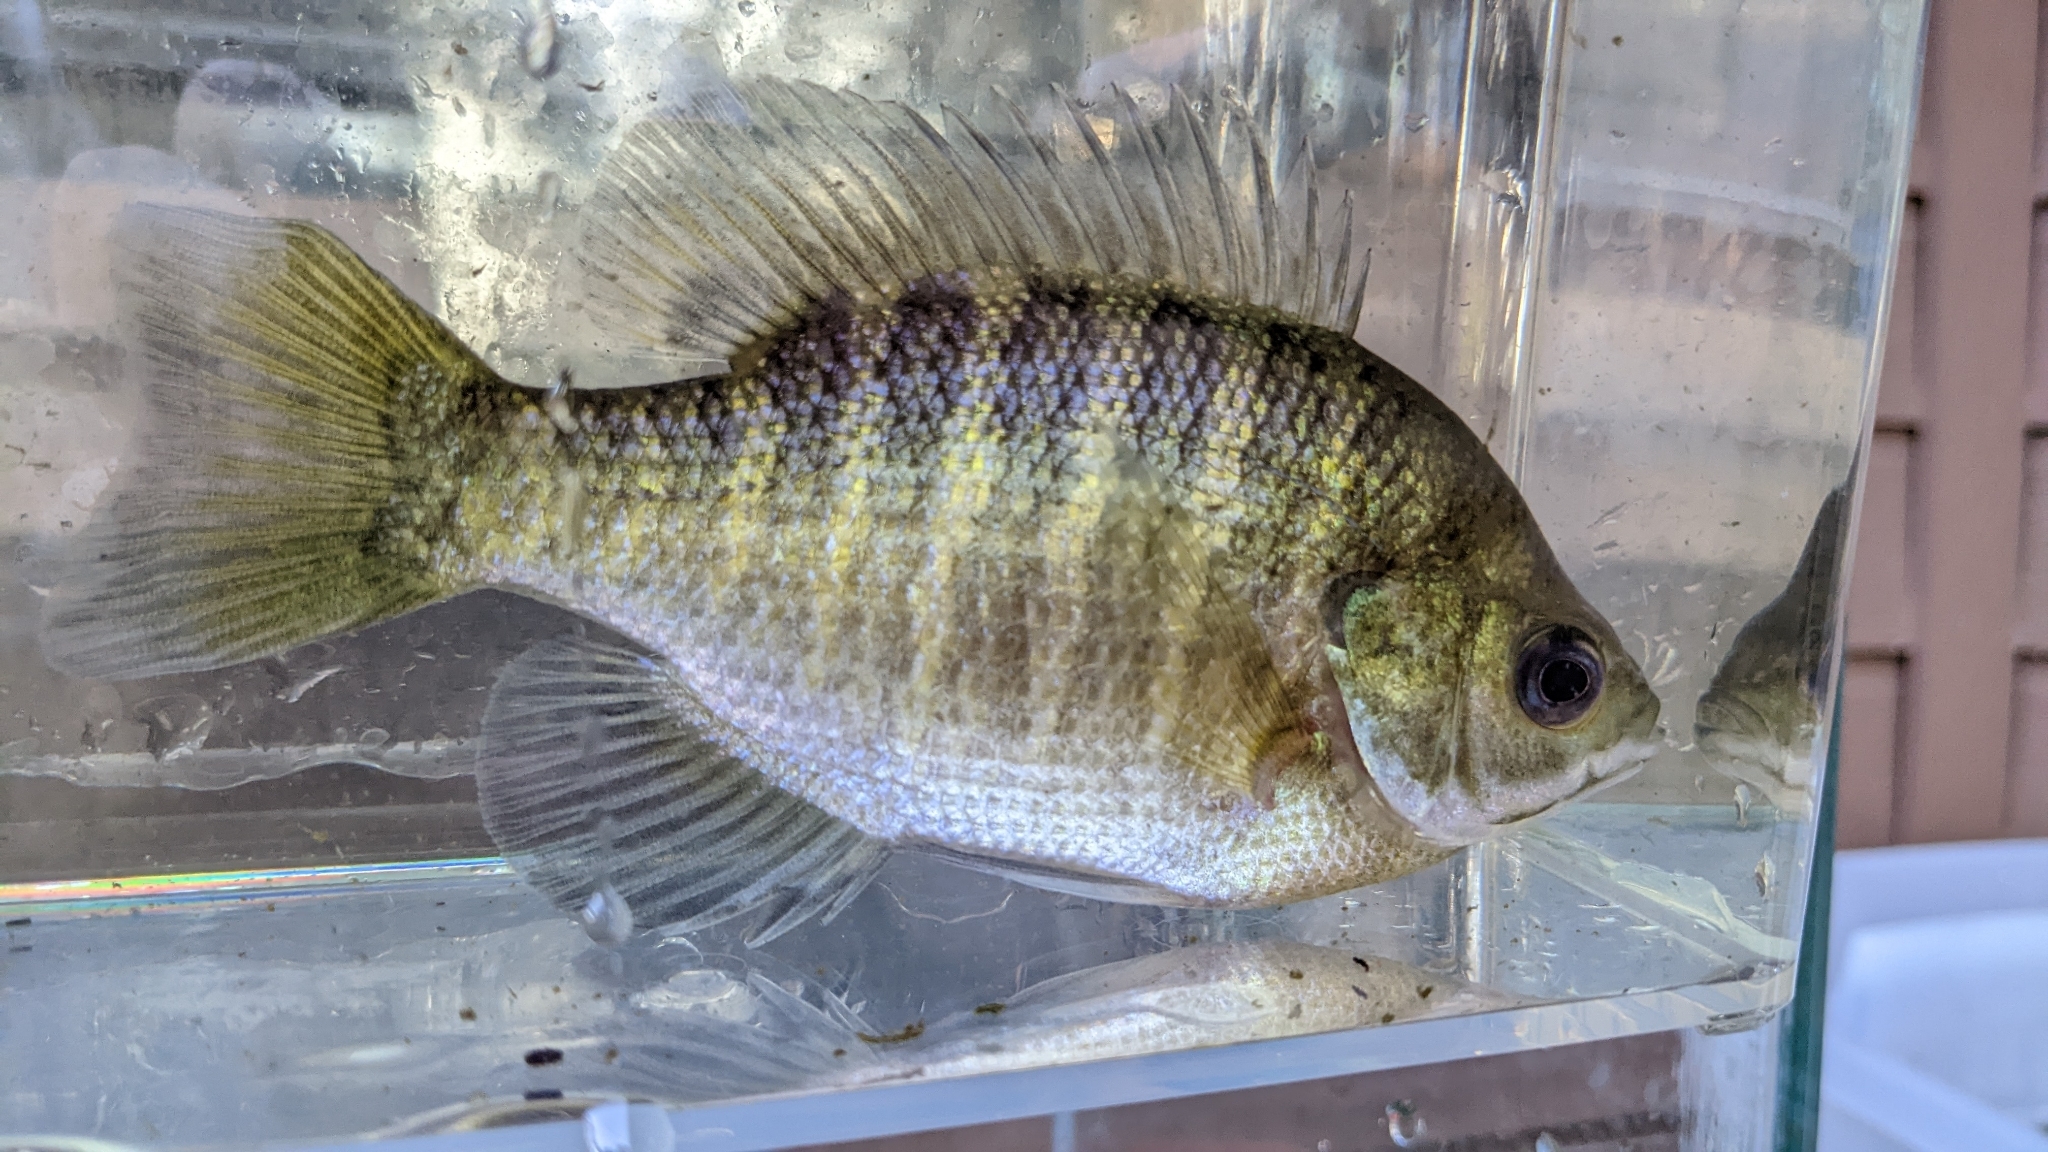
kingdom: Animalia
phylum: Chordata
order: Perciformes
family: Centrarchidae
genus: Lepomis
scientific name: Lepomis macrochirus
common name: Bluegill
